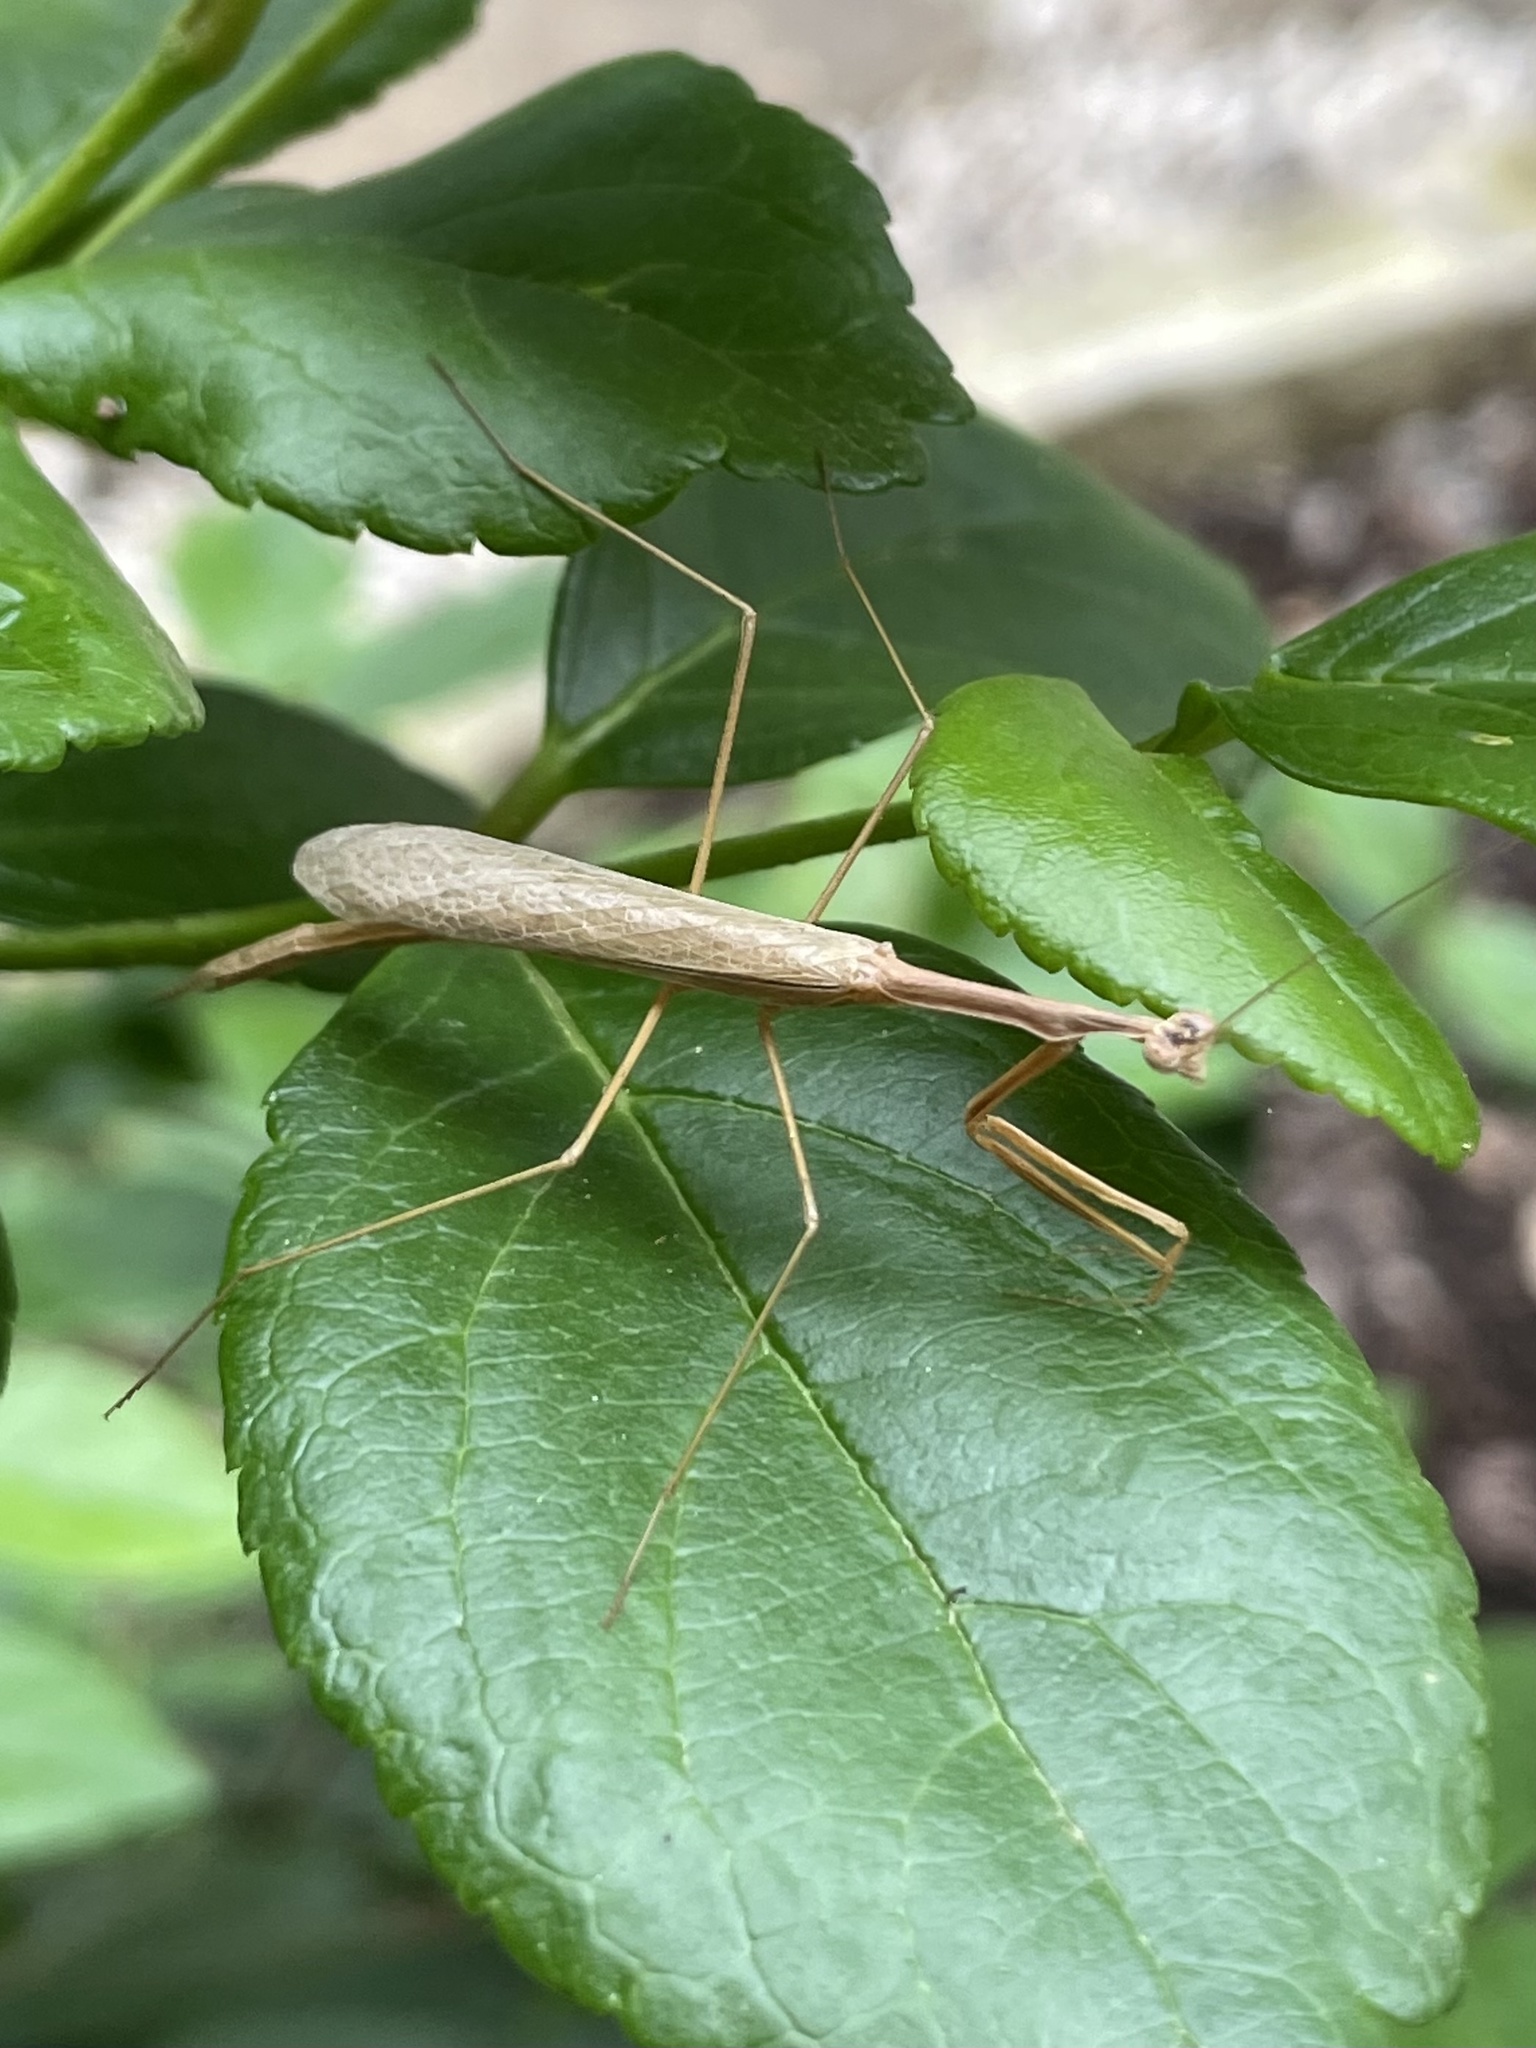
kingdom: Animalia
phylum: Arthropoda
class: Insecta
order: Mantodea
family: Thespidae
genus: Bistanta
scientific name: Bistanta mexicana
